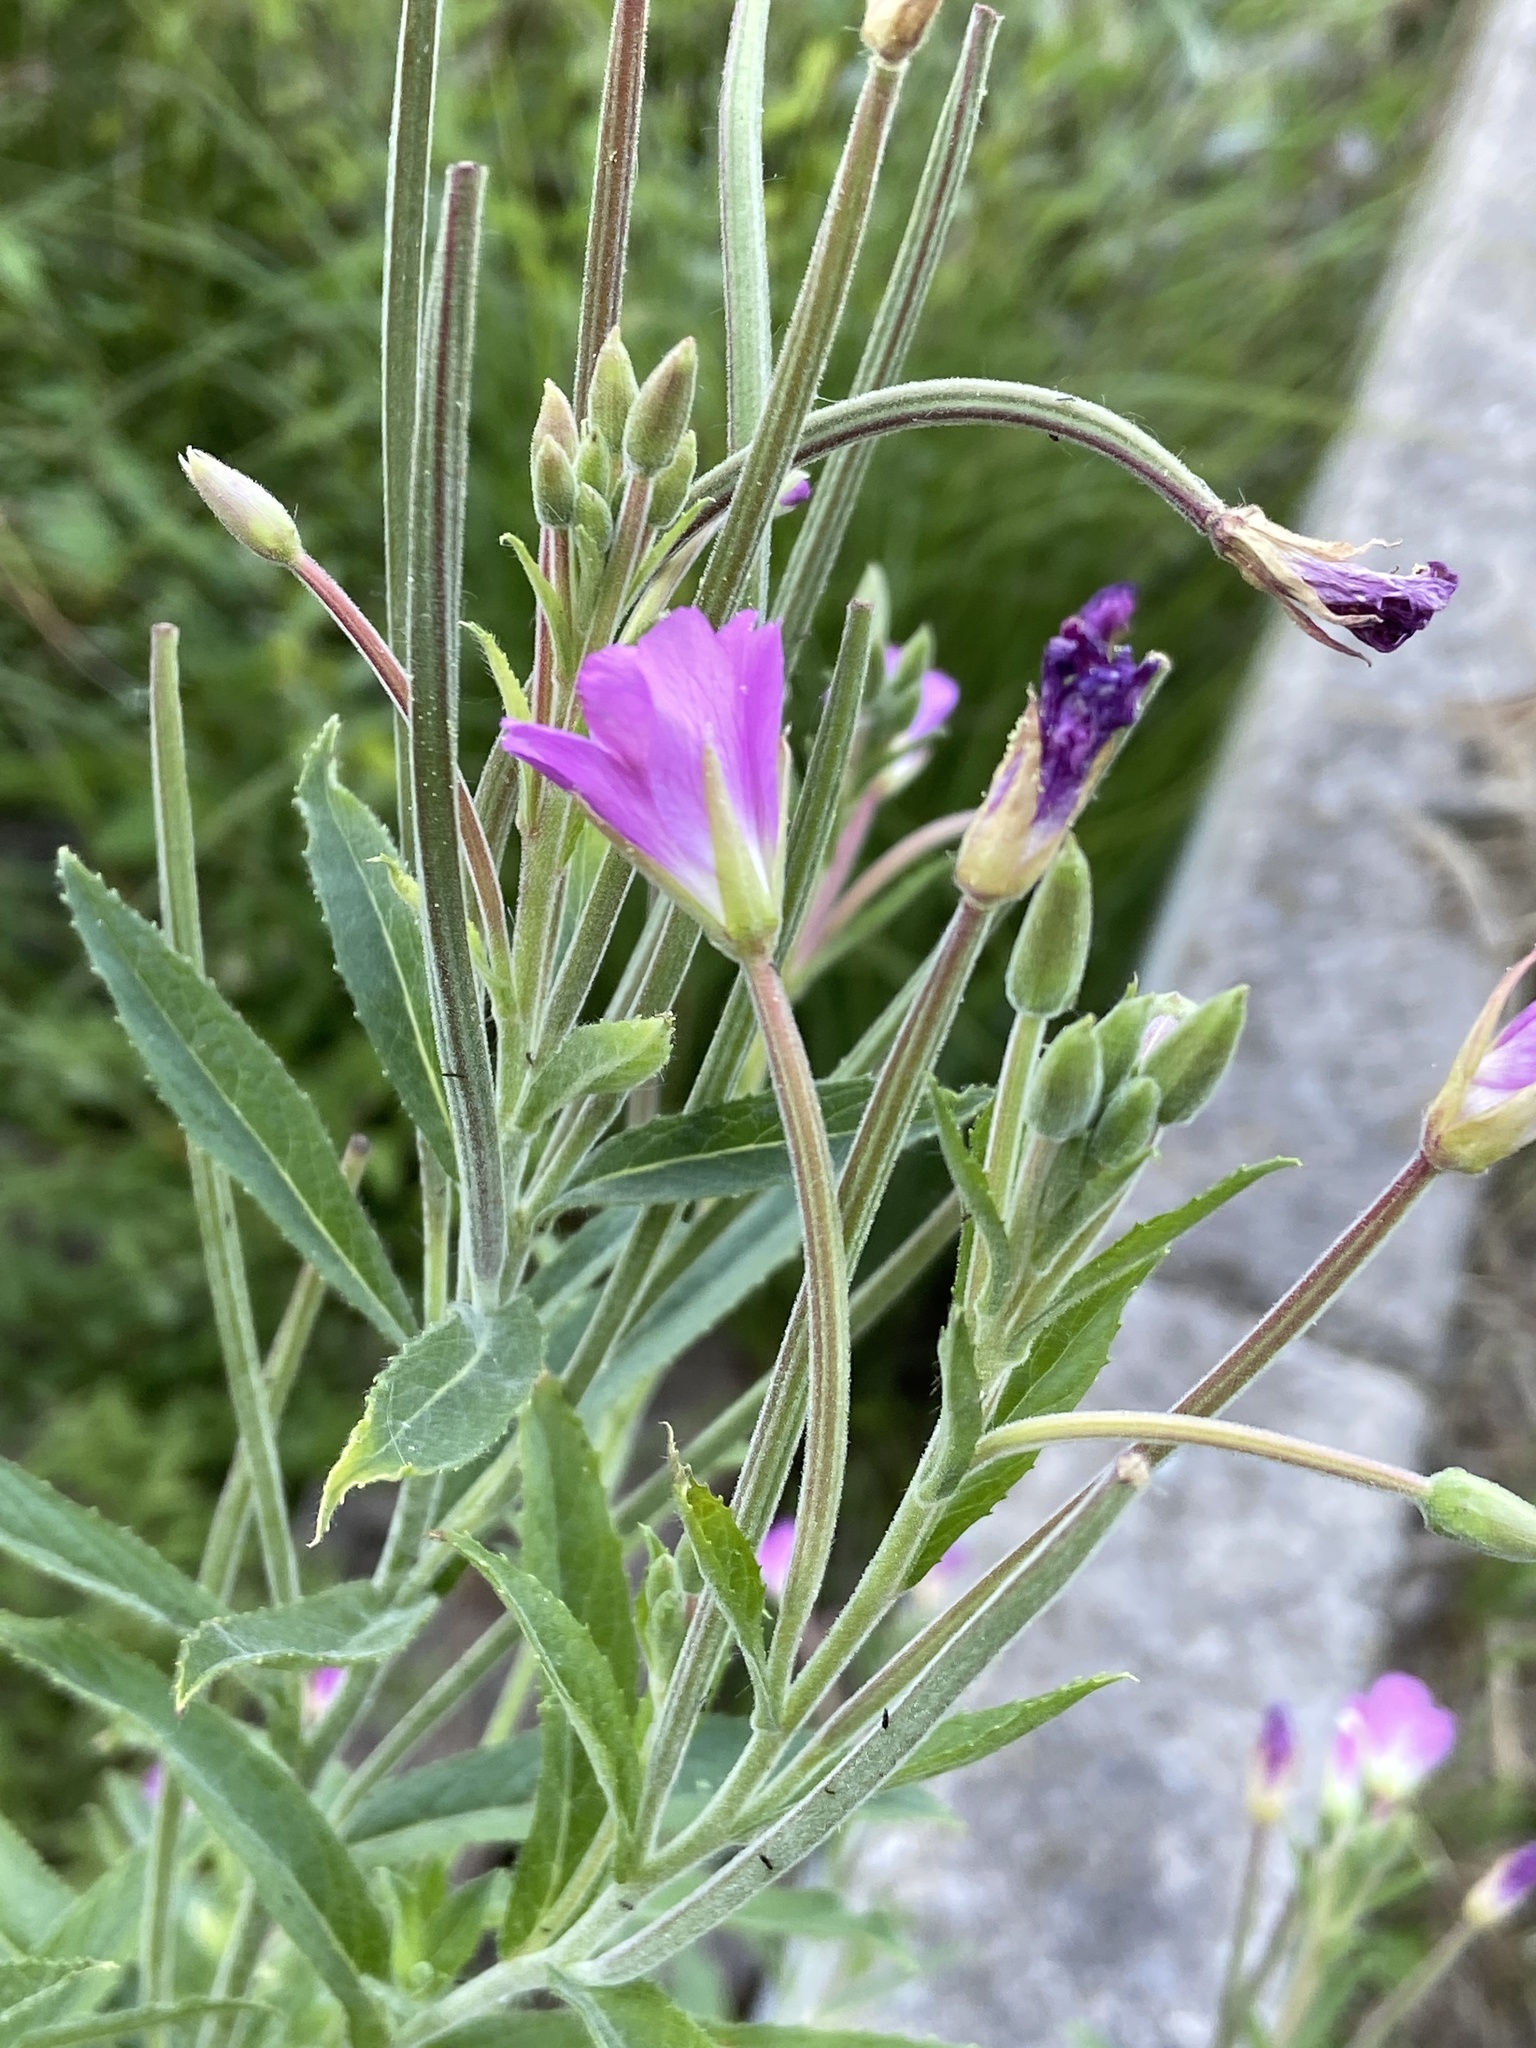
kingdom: Plantae
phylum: Tracheophyta
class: Magnoliopsida
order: Myrtales
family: Onagraceae
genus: Epilobium
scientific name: Epilobium hirsutum
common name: Great willowherb
